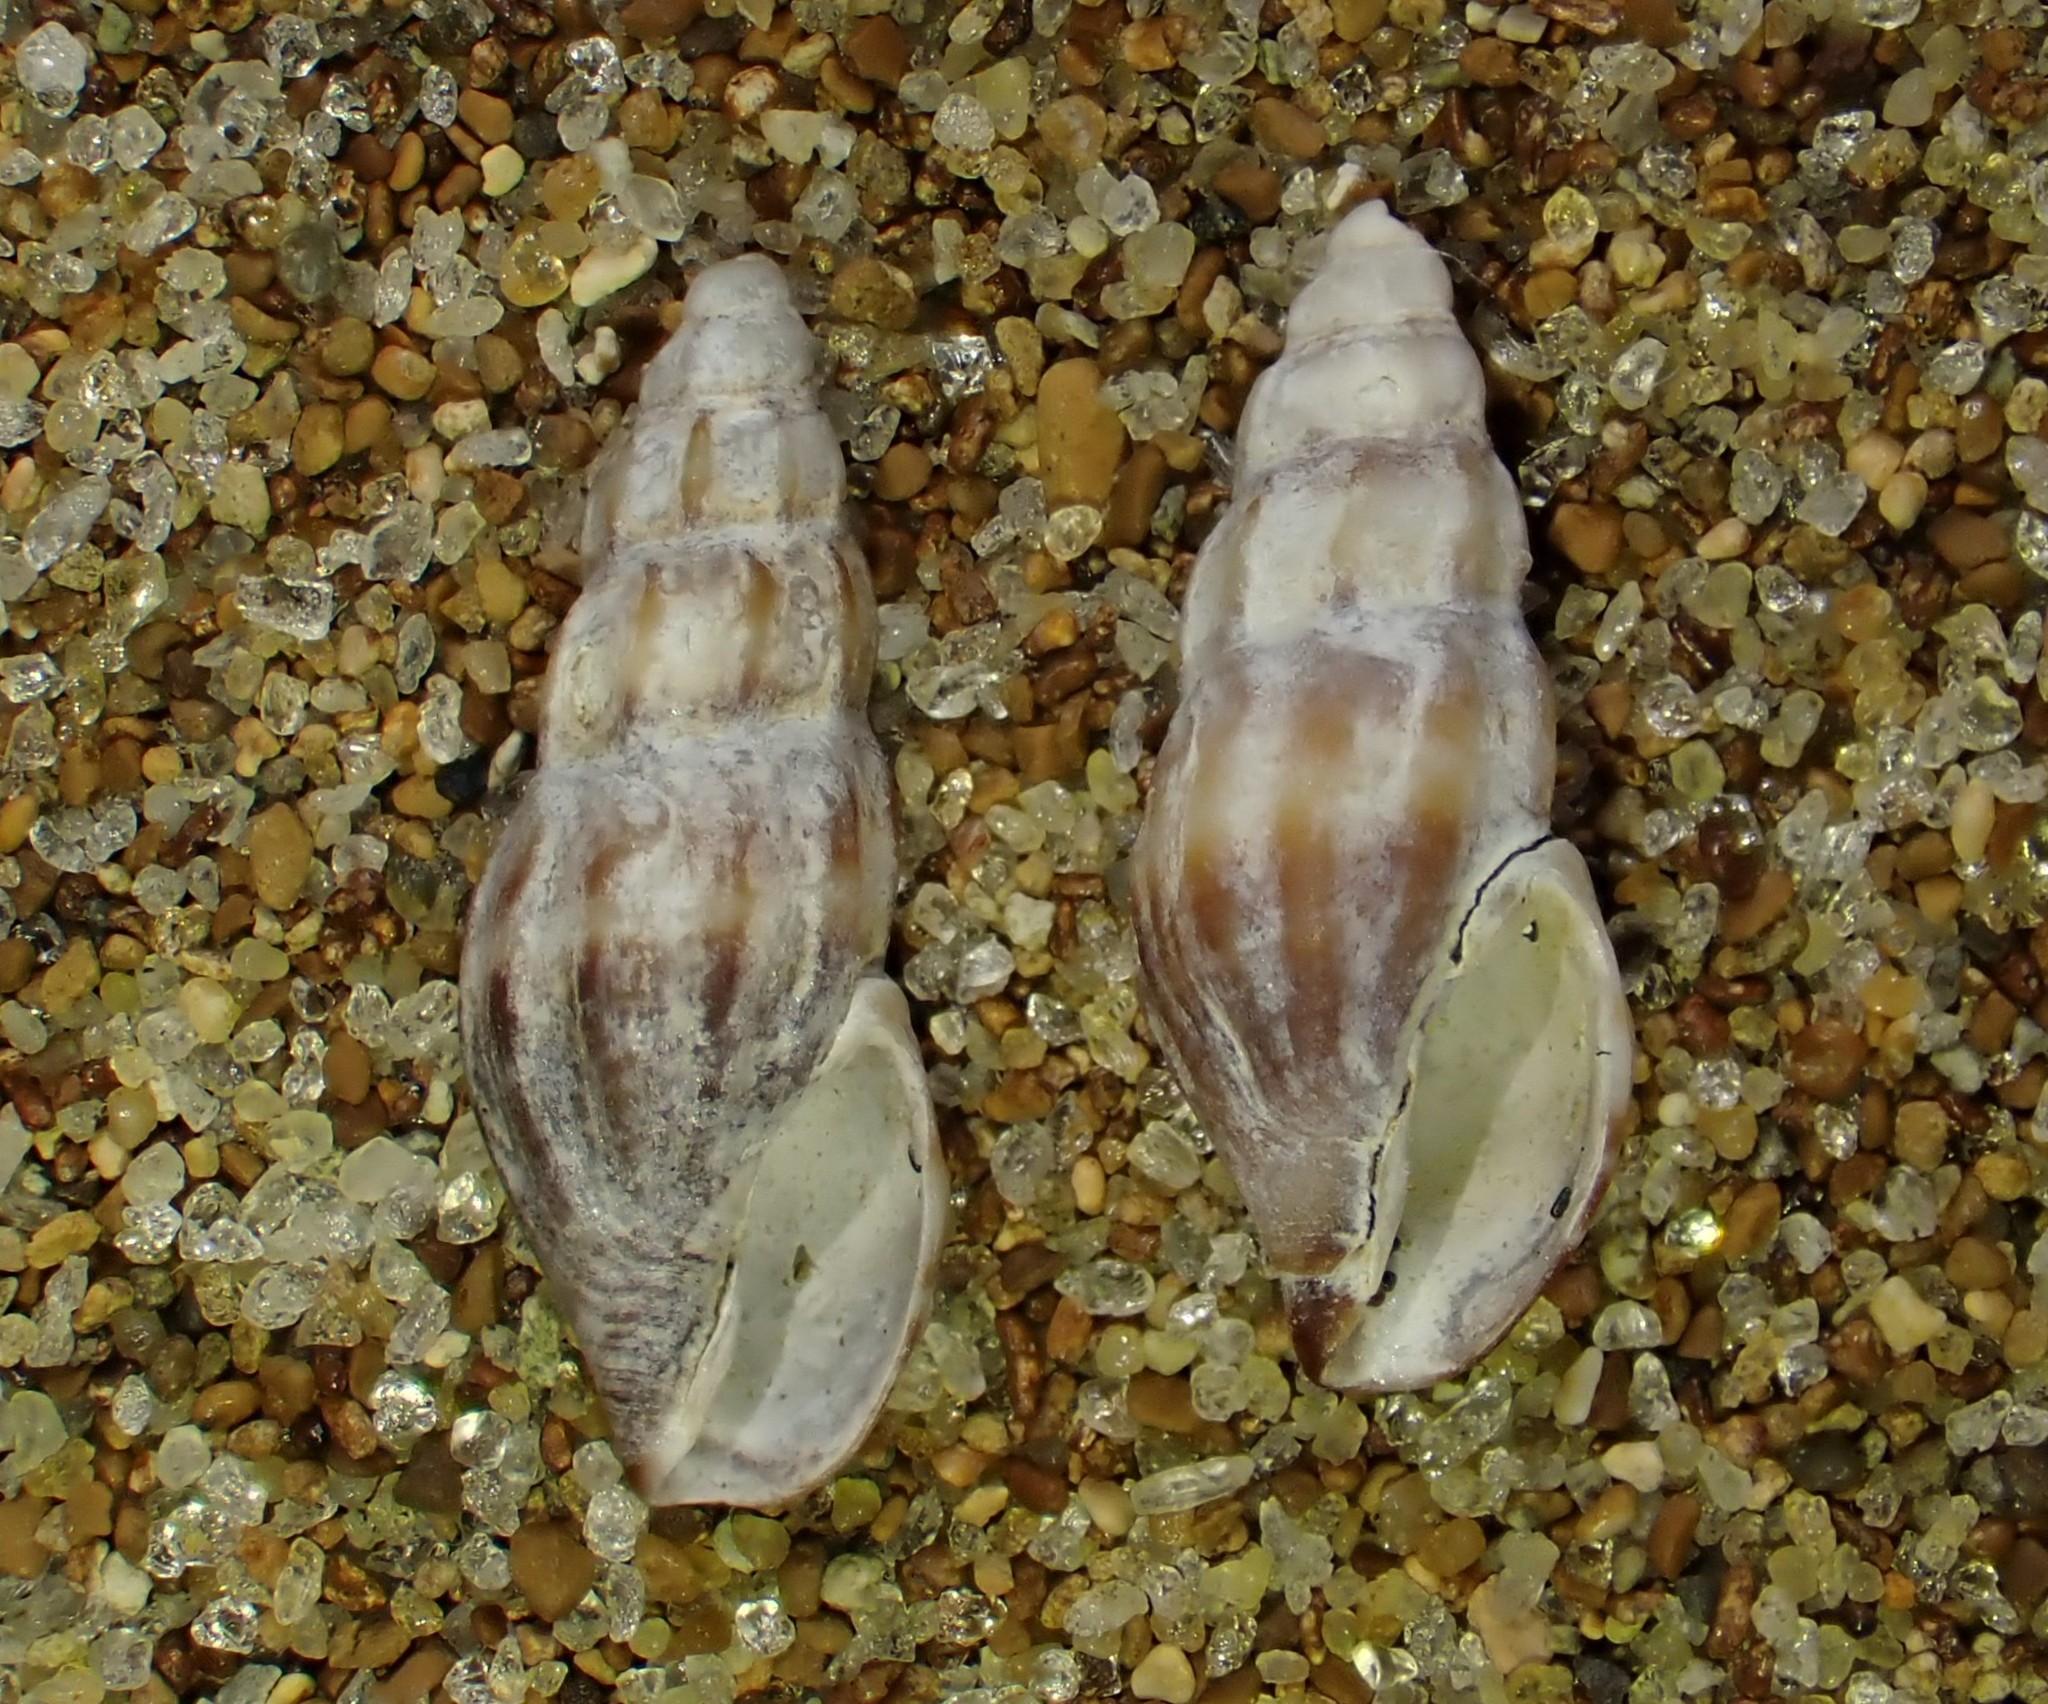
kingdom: Animalia
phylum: Mollusca
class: Gastropoda
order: Neogastropoda
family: Mangeliidae
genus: Neoguraleus
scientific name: Neoguraleus manukauensis
